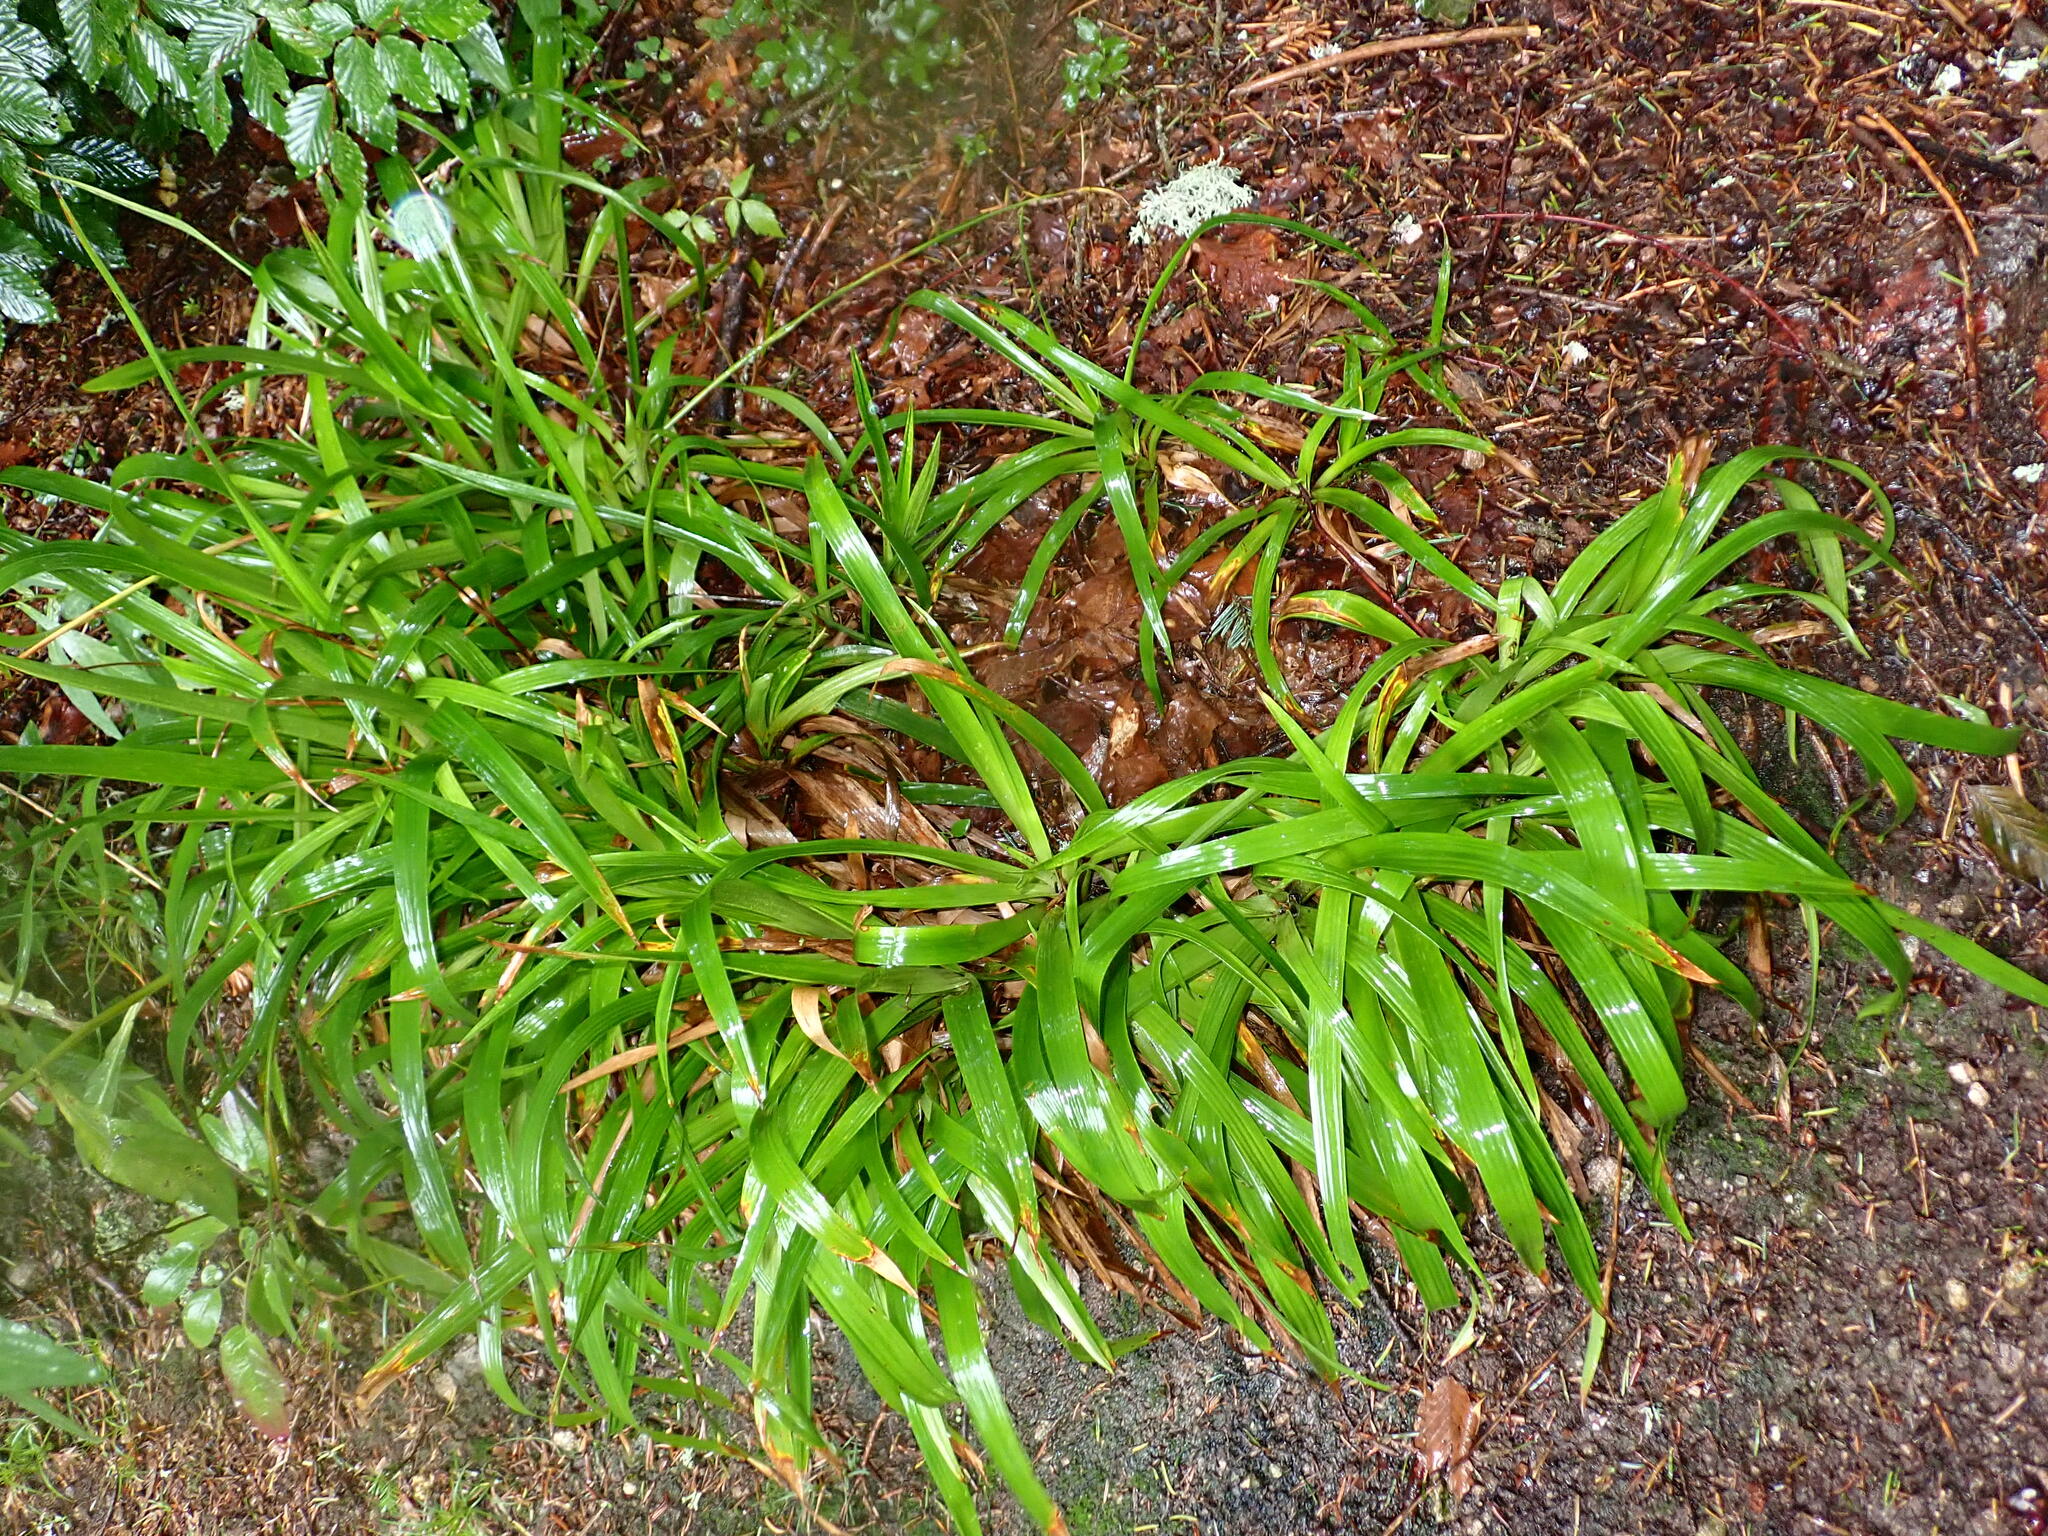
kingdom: Plantae
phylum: Tracheophyta
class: Liliopsida
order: Poales
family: Juncaceae
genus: Luzula
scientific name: Luzula sylvatica
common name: Great wood-rush
